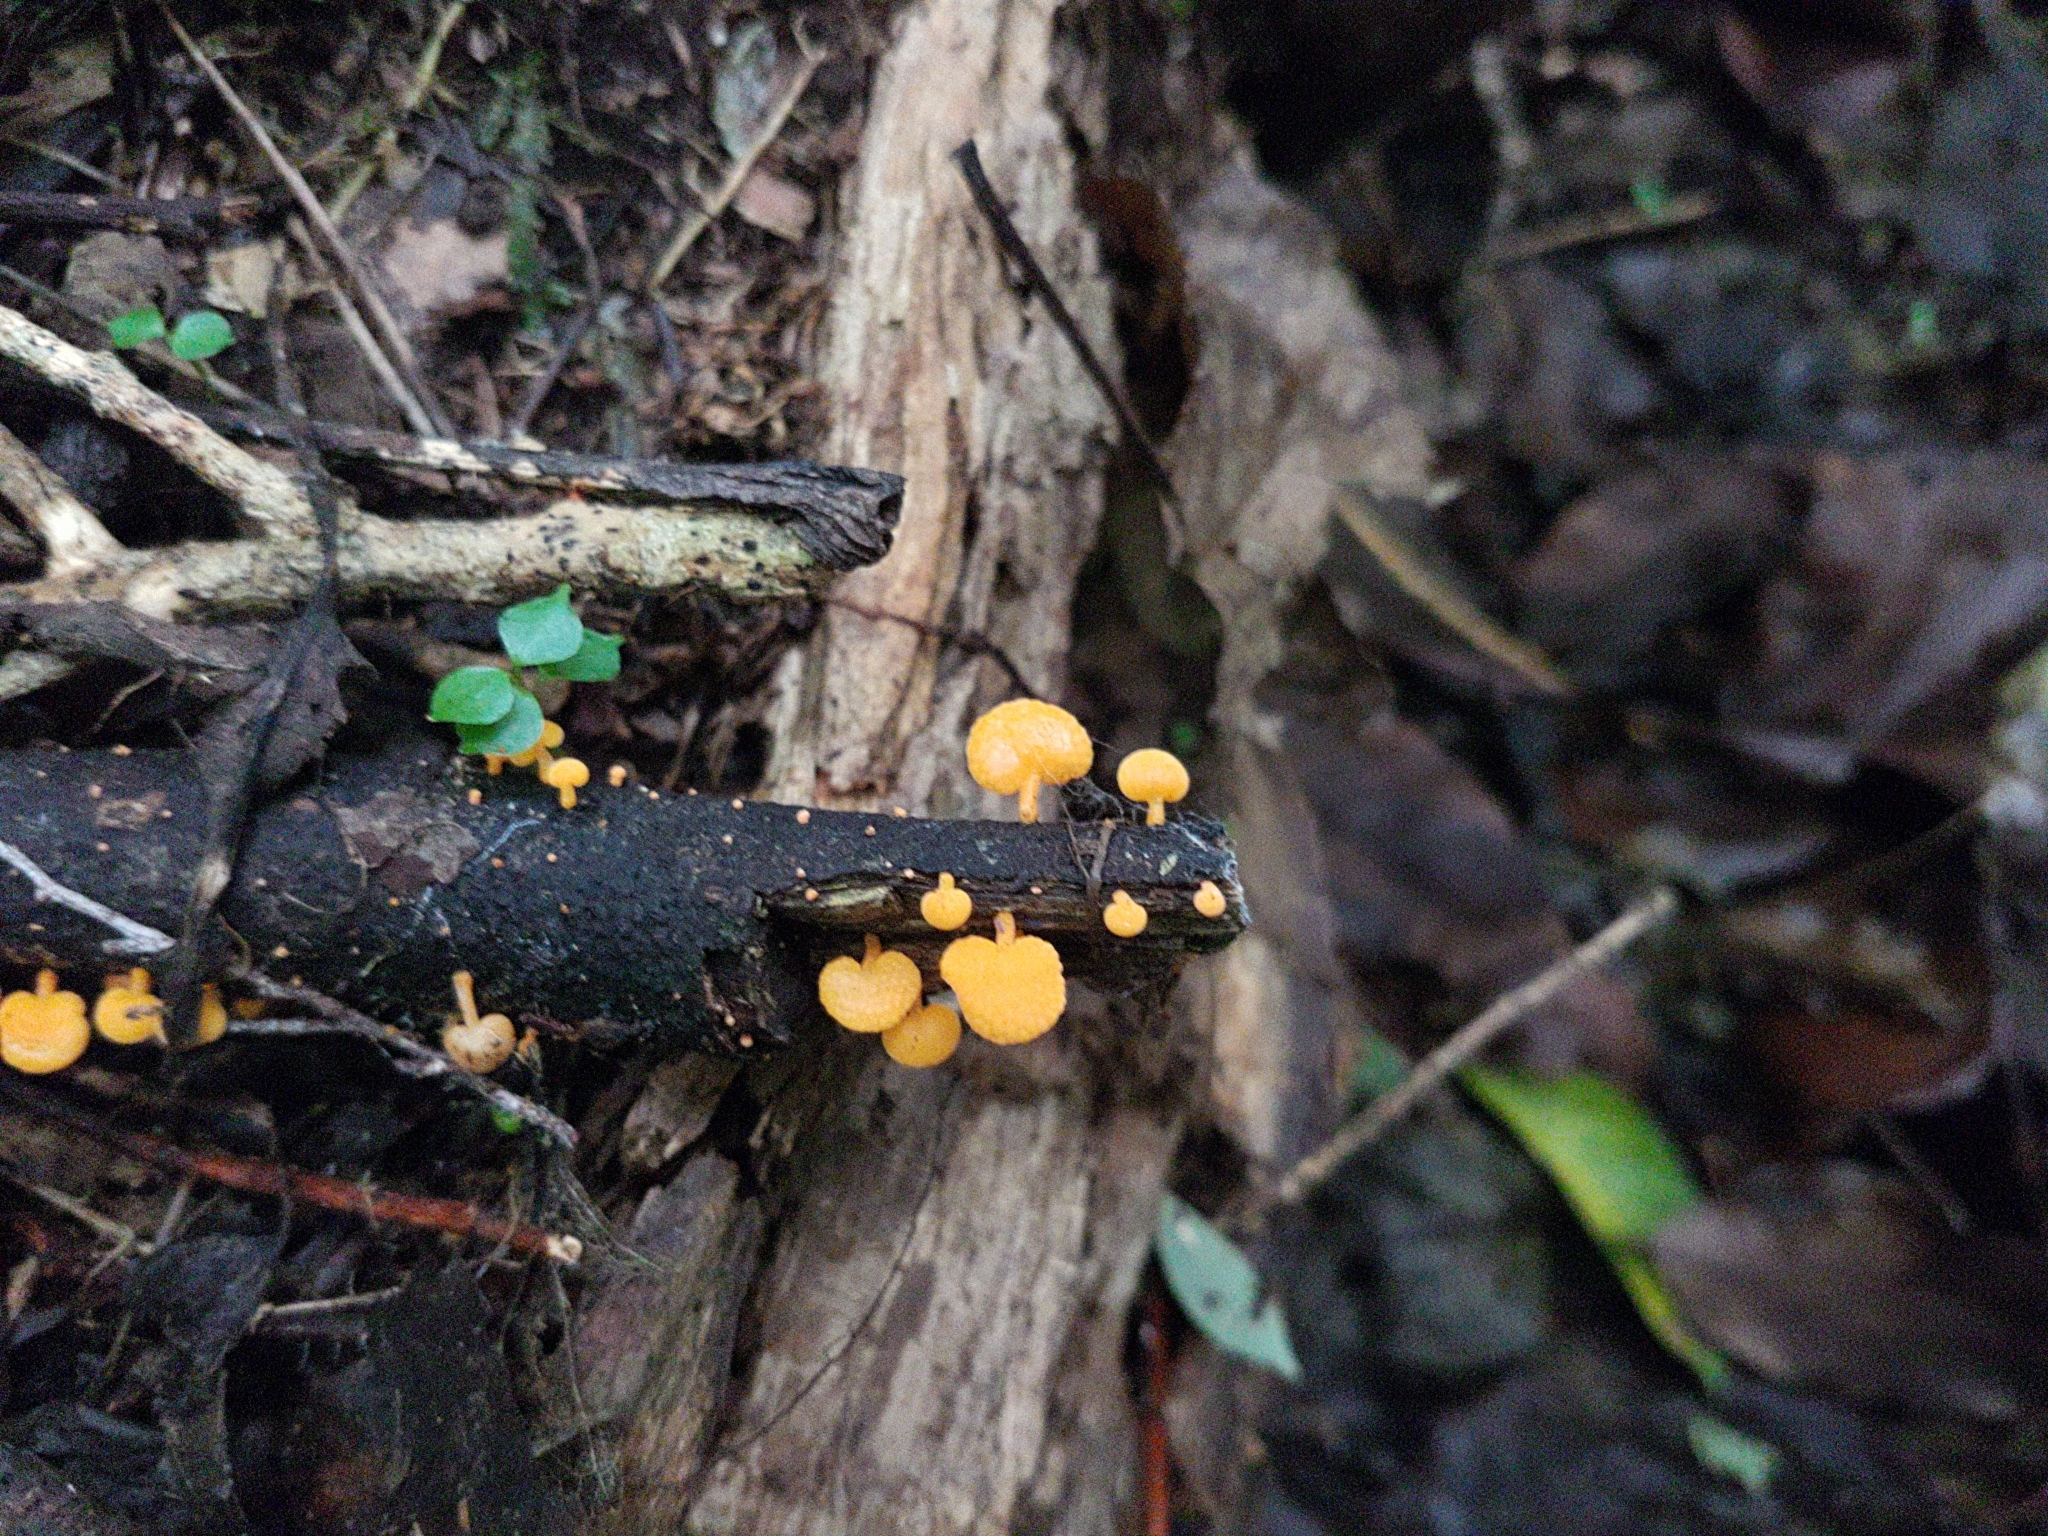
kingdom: Fungi
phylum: Basidiomycota
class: Agaricomycetes
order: Agaricales
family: Mycenaceae
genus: Favolaschia
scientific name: Favolaschia claudopus
